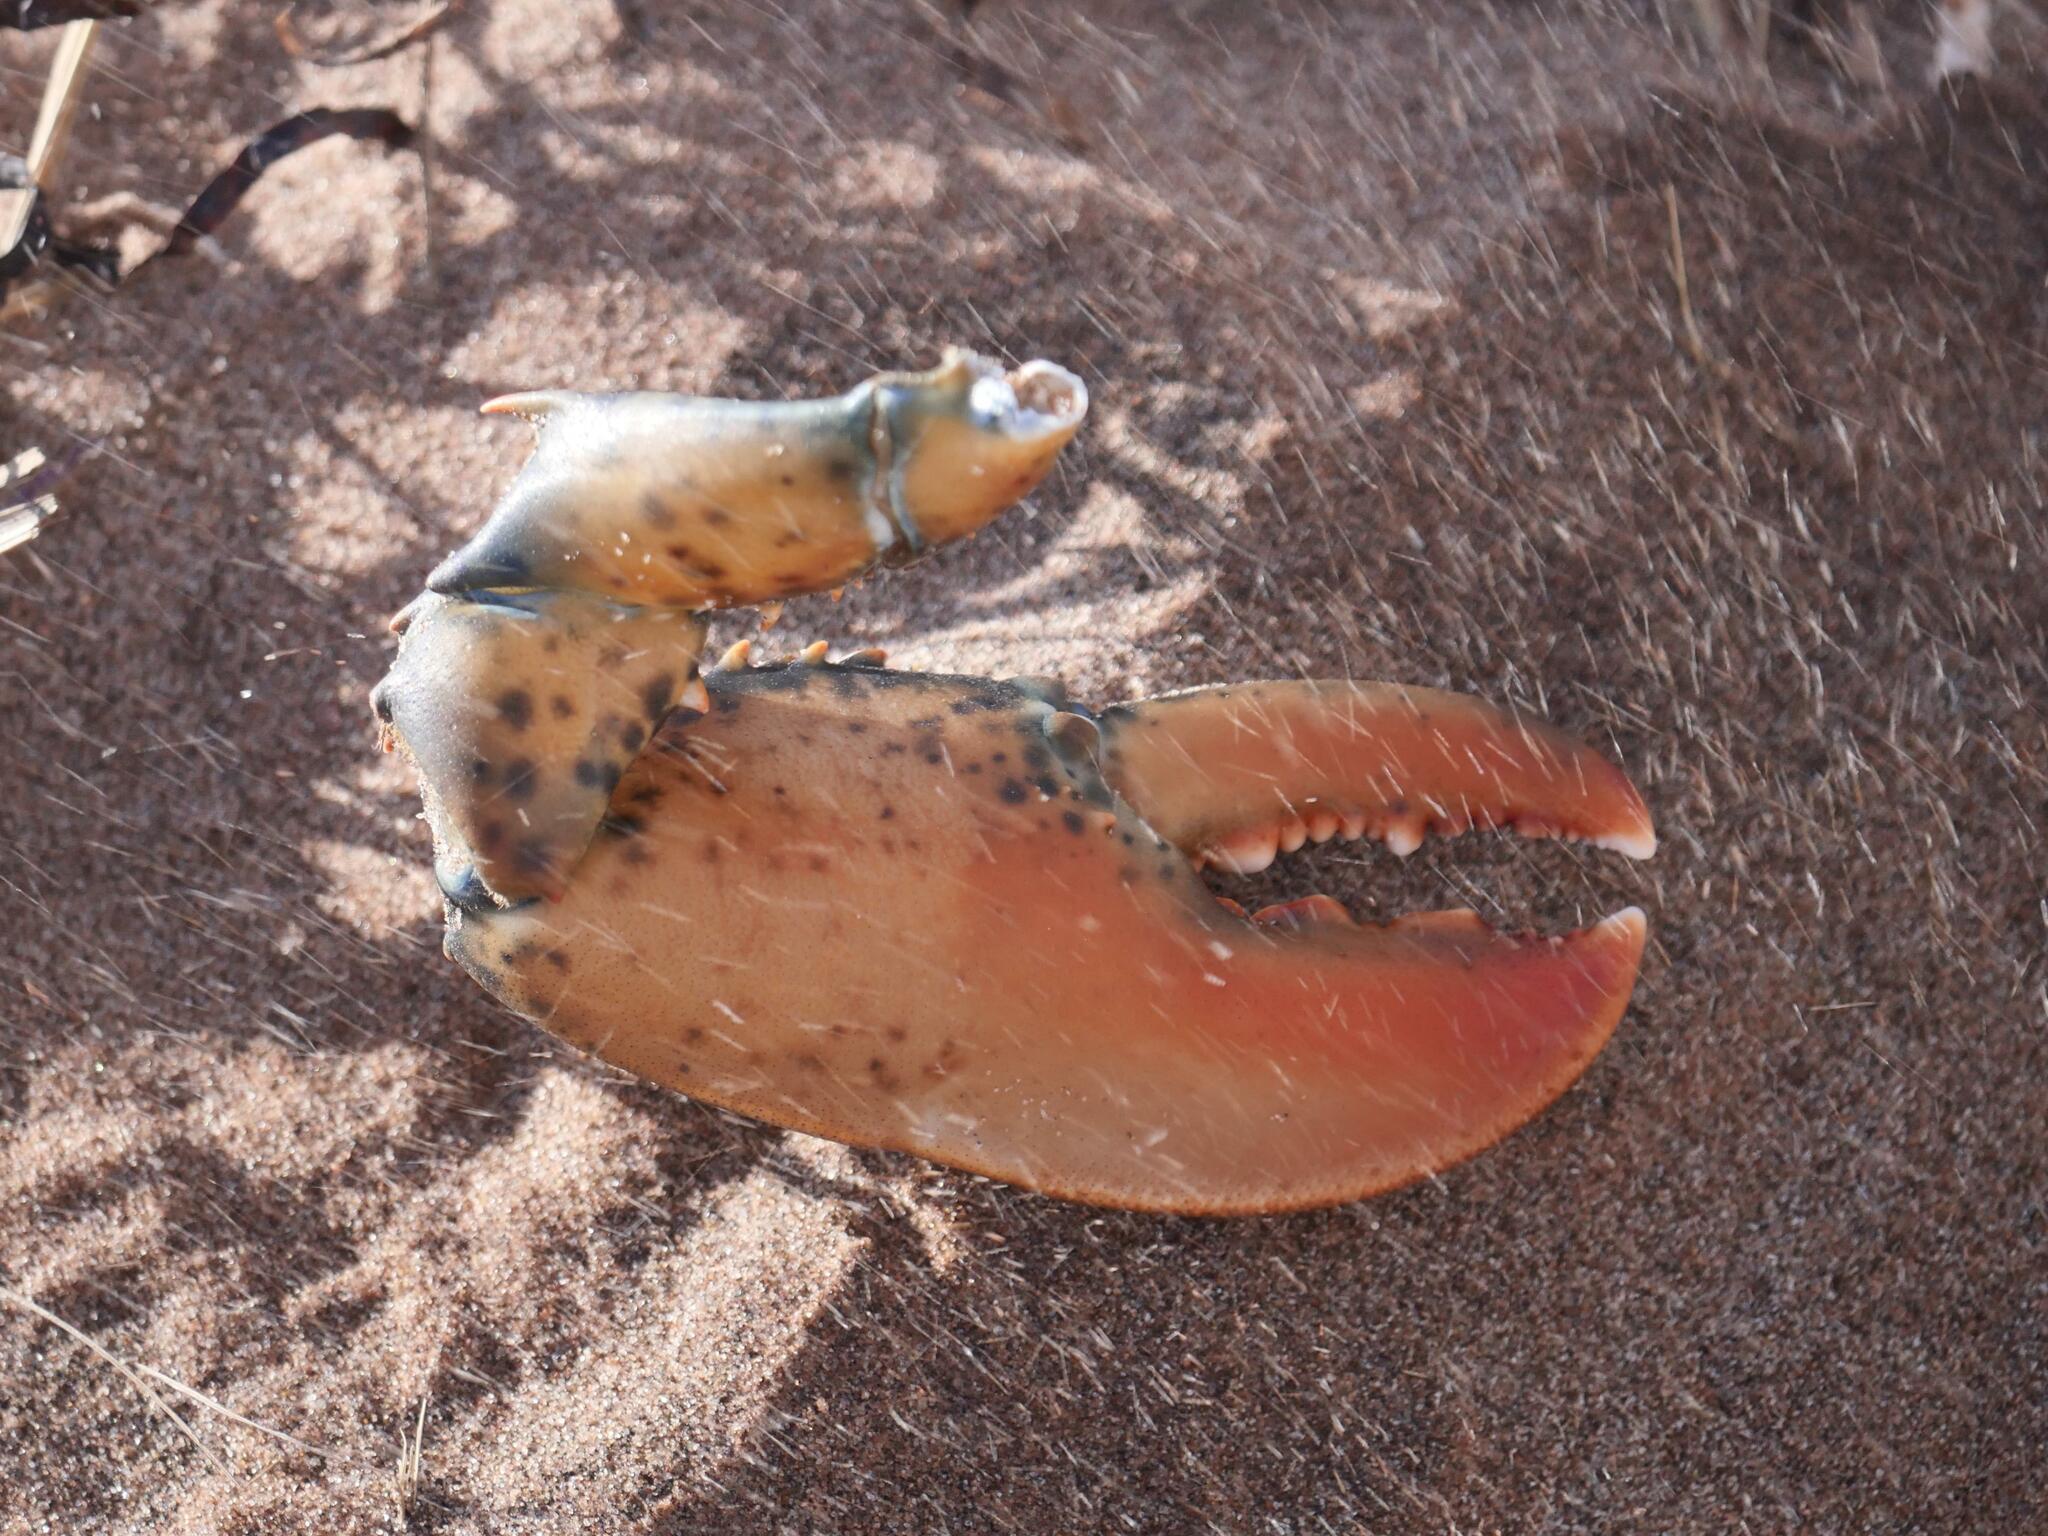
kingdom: Animalia
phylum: Arthropoda
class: Malacostraca
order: Decapoda
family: Nephropidae
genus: Homarus
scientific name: Homarus americanus
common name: American lobster
